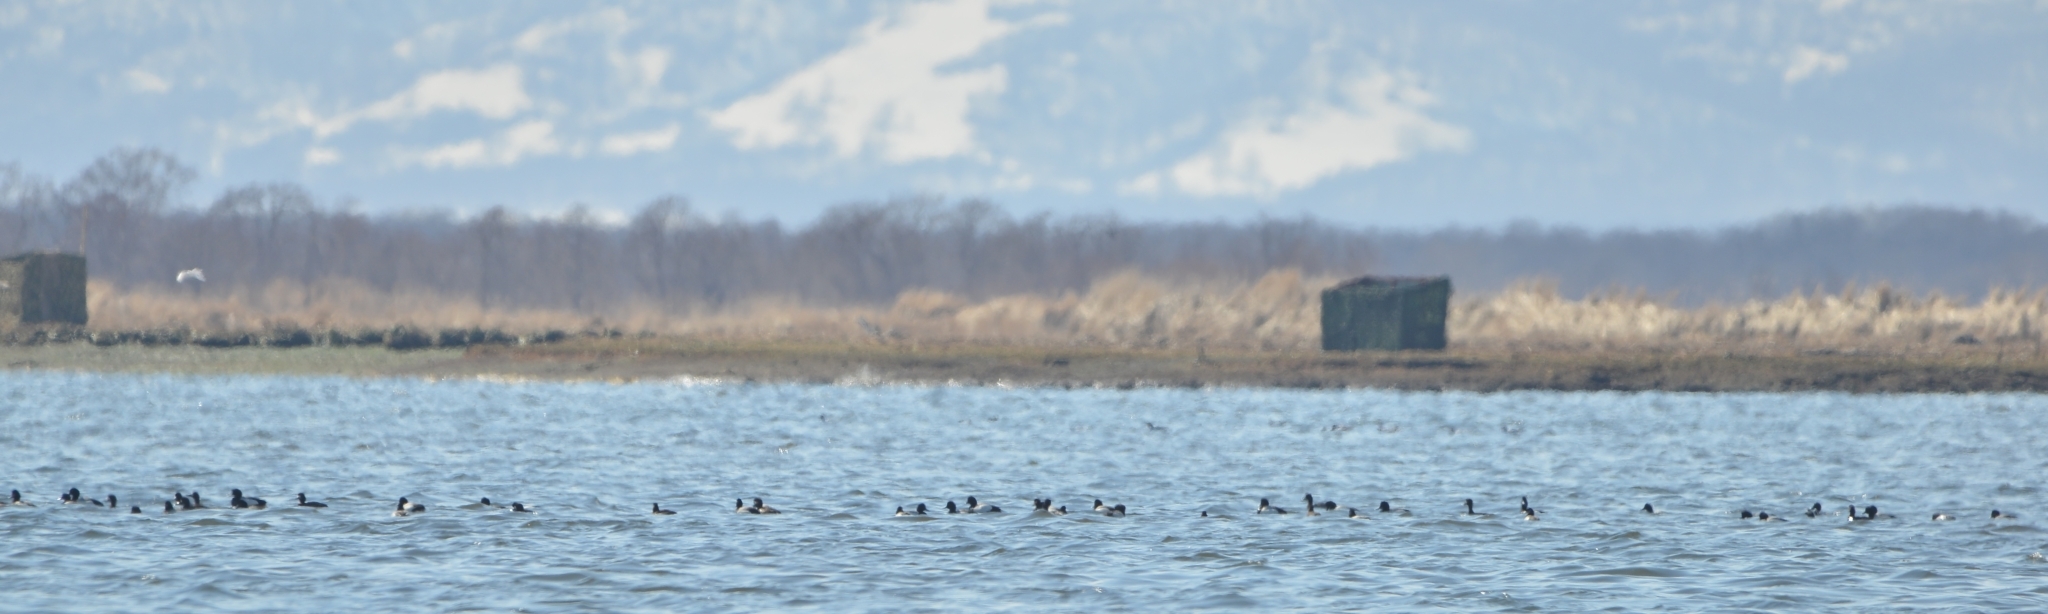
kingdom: Animalia
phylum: Chordata
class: Aves
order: Anseriformes
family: Anatidae
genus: Aythya
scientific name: Aythya marila
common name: Greater scaup
